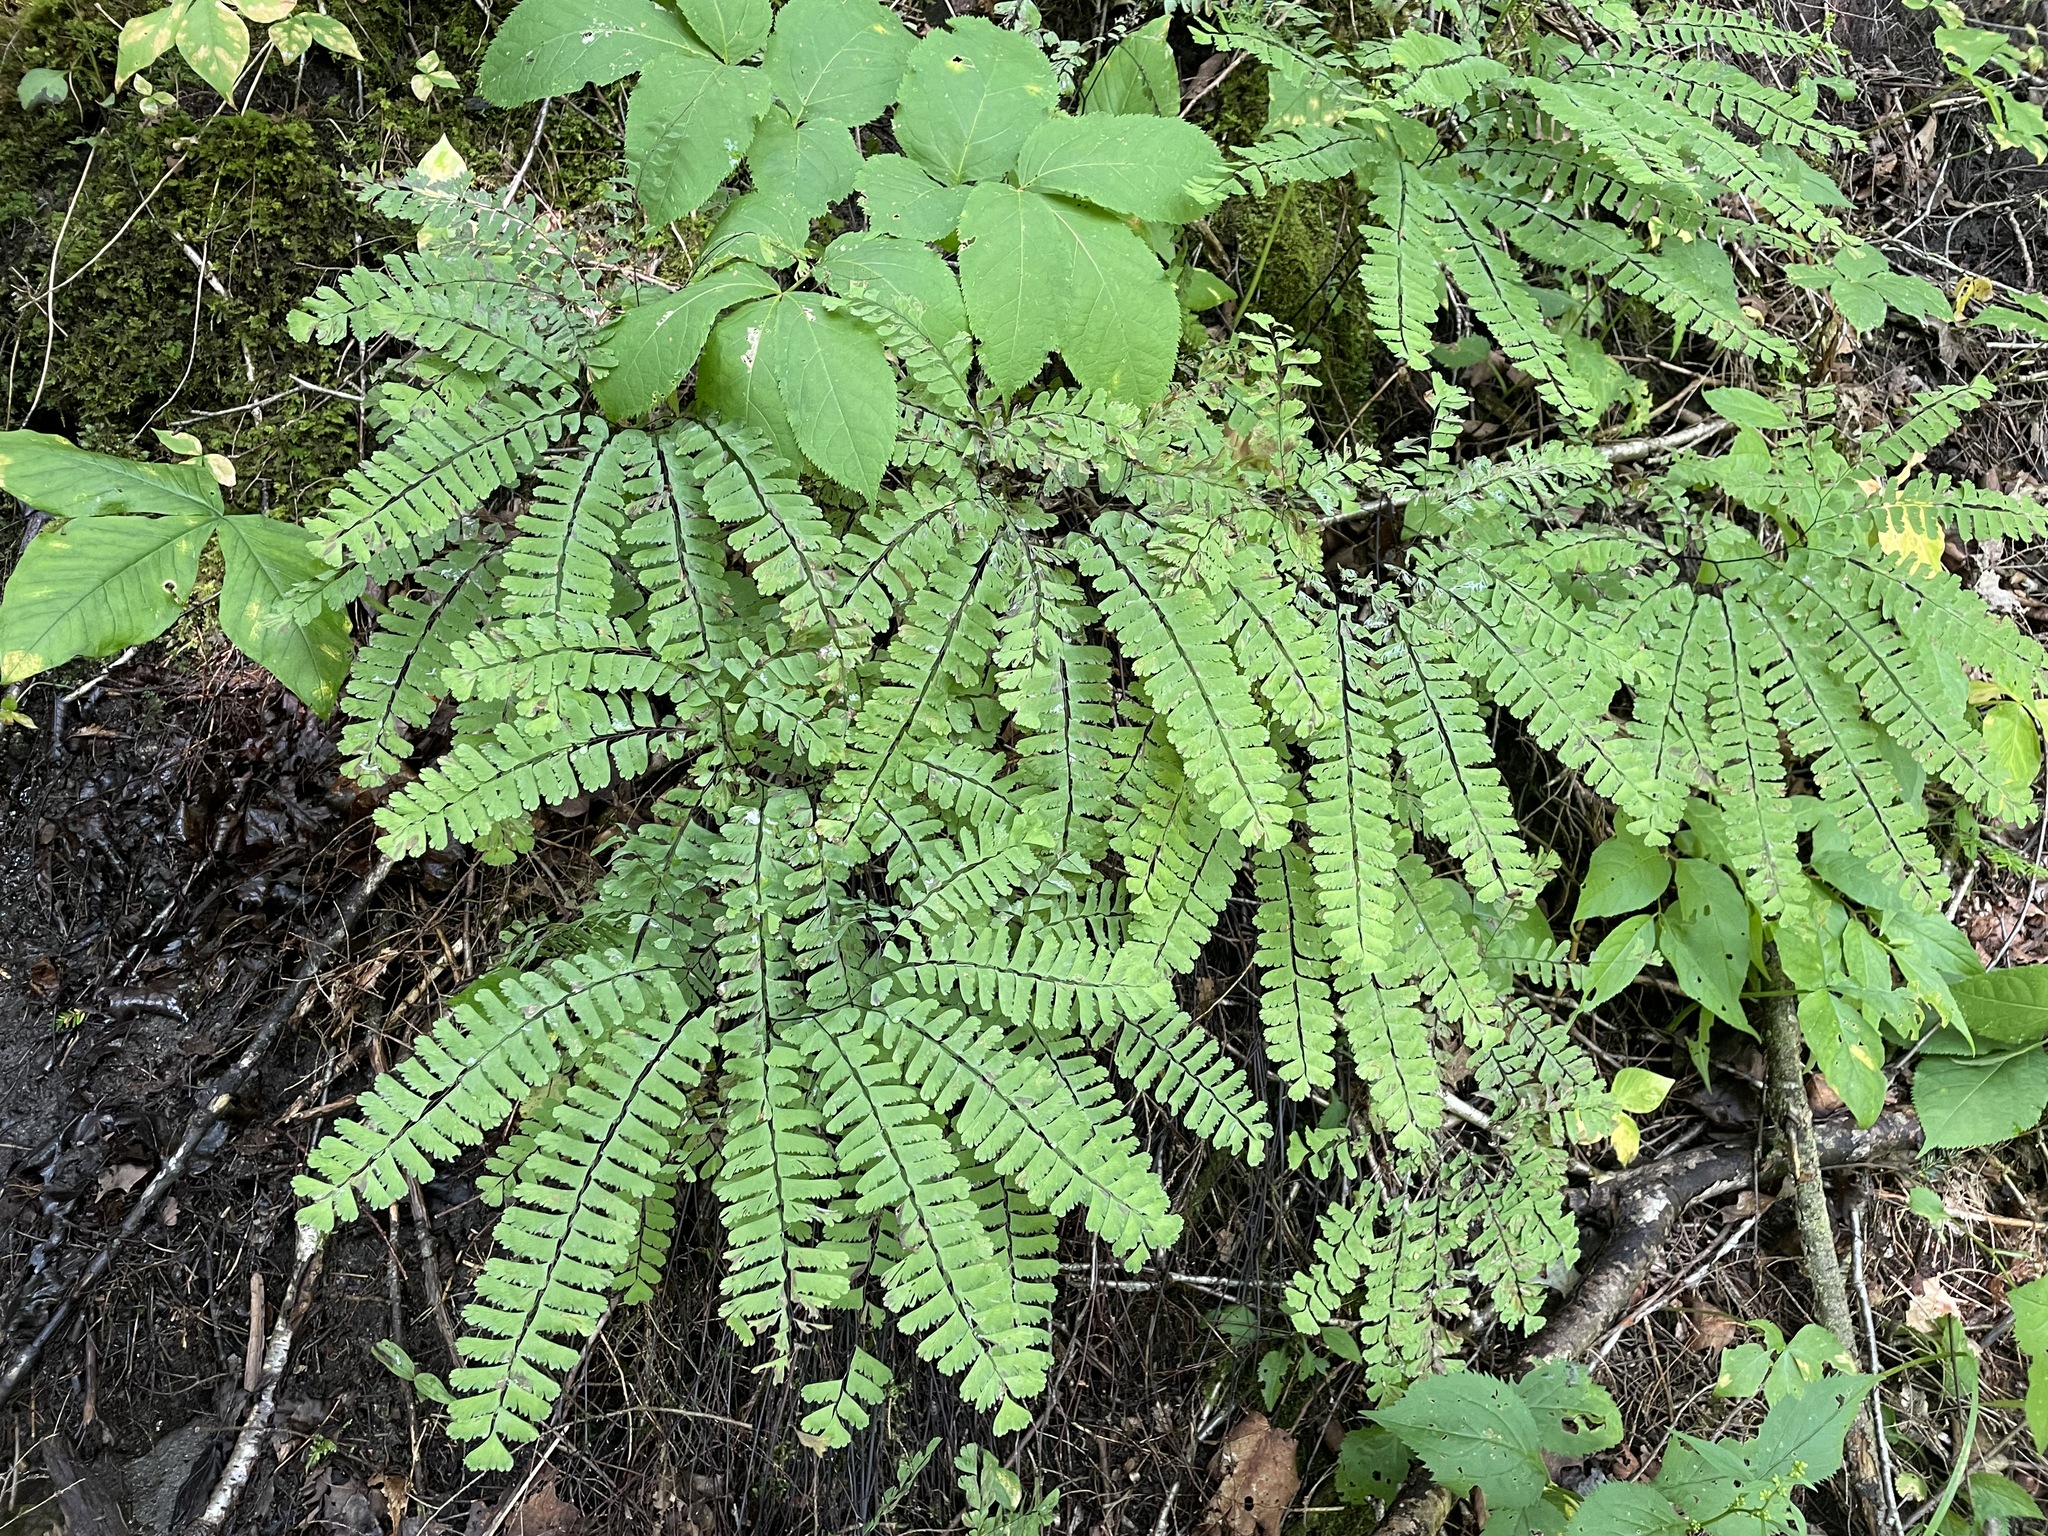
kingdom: Plantae
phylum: Tracheophyta
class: Polypodiopsida
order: Polypodiales
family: Pteridaceae
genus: Adiantum
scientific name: Adiantum pedatum
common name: Five-finger fern
